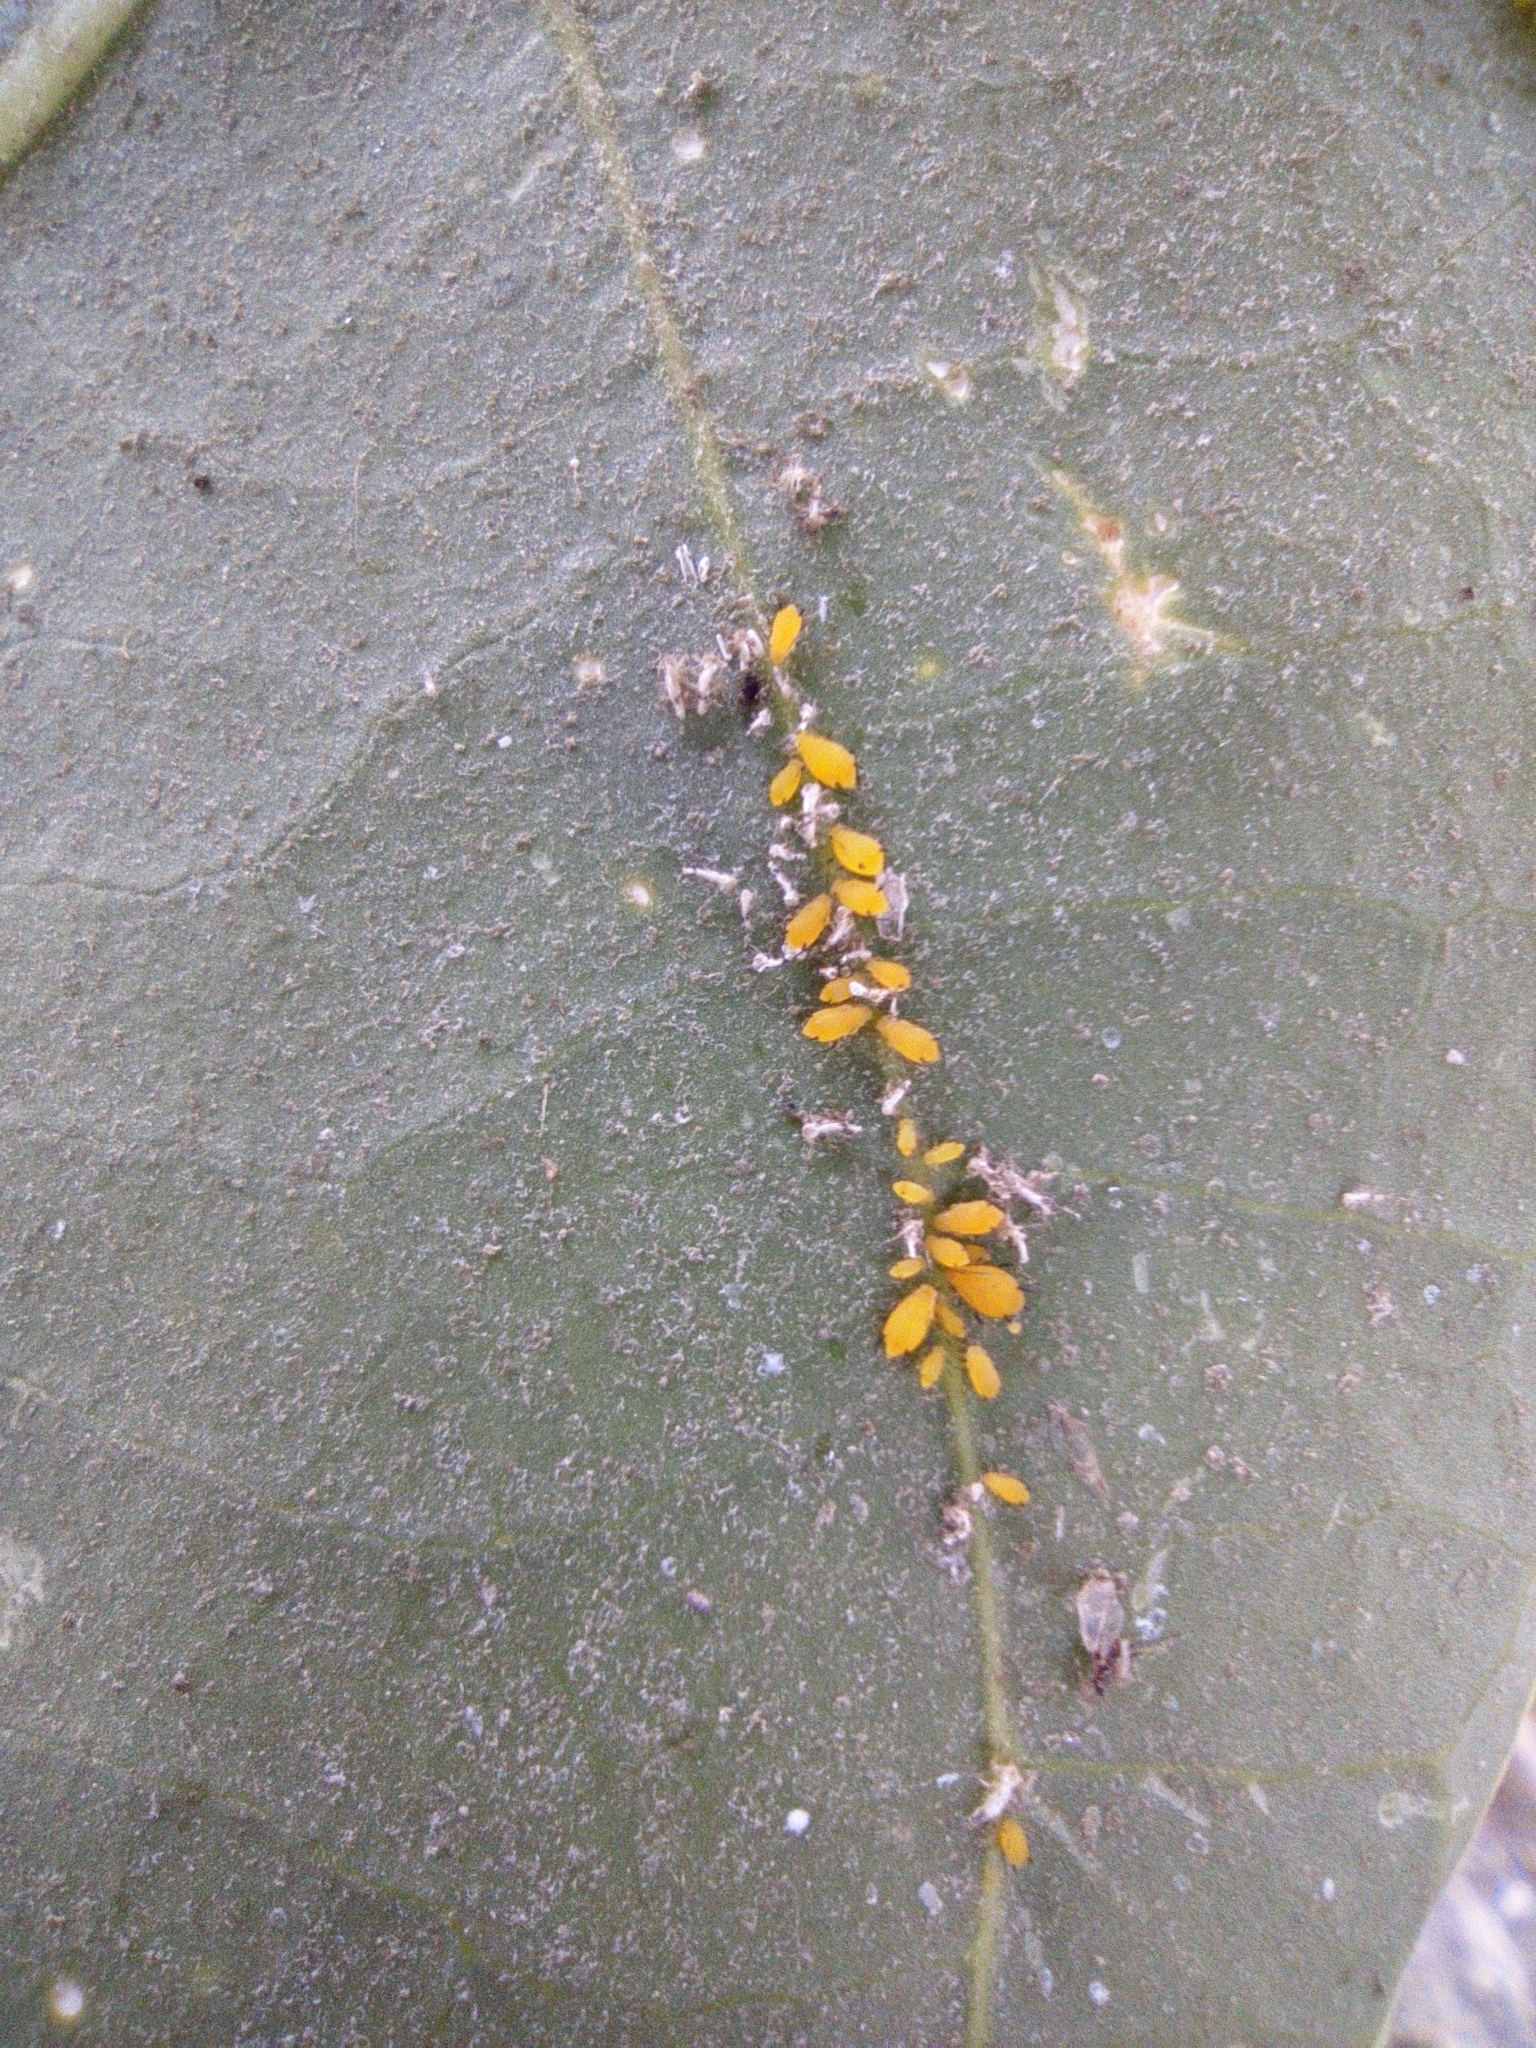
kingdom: Animalia
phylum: Arthropoda
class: Insecta
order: Hemiptera
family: Aphididae
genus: Aphis
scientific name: Aphis nerii
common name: Oleander aphid
